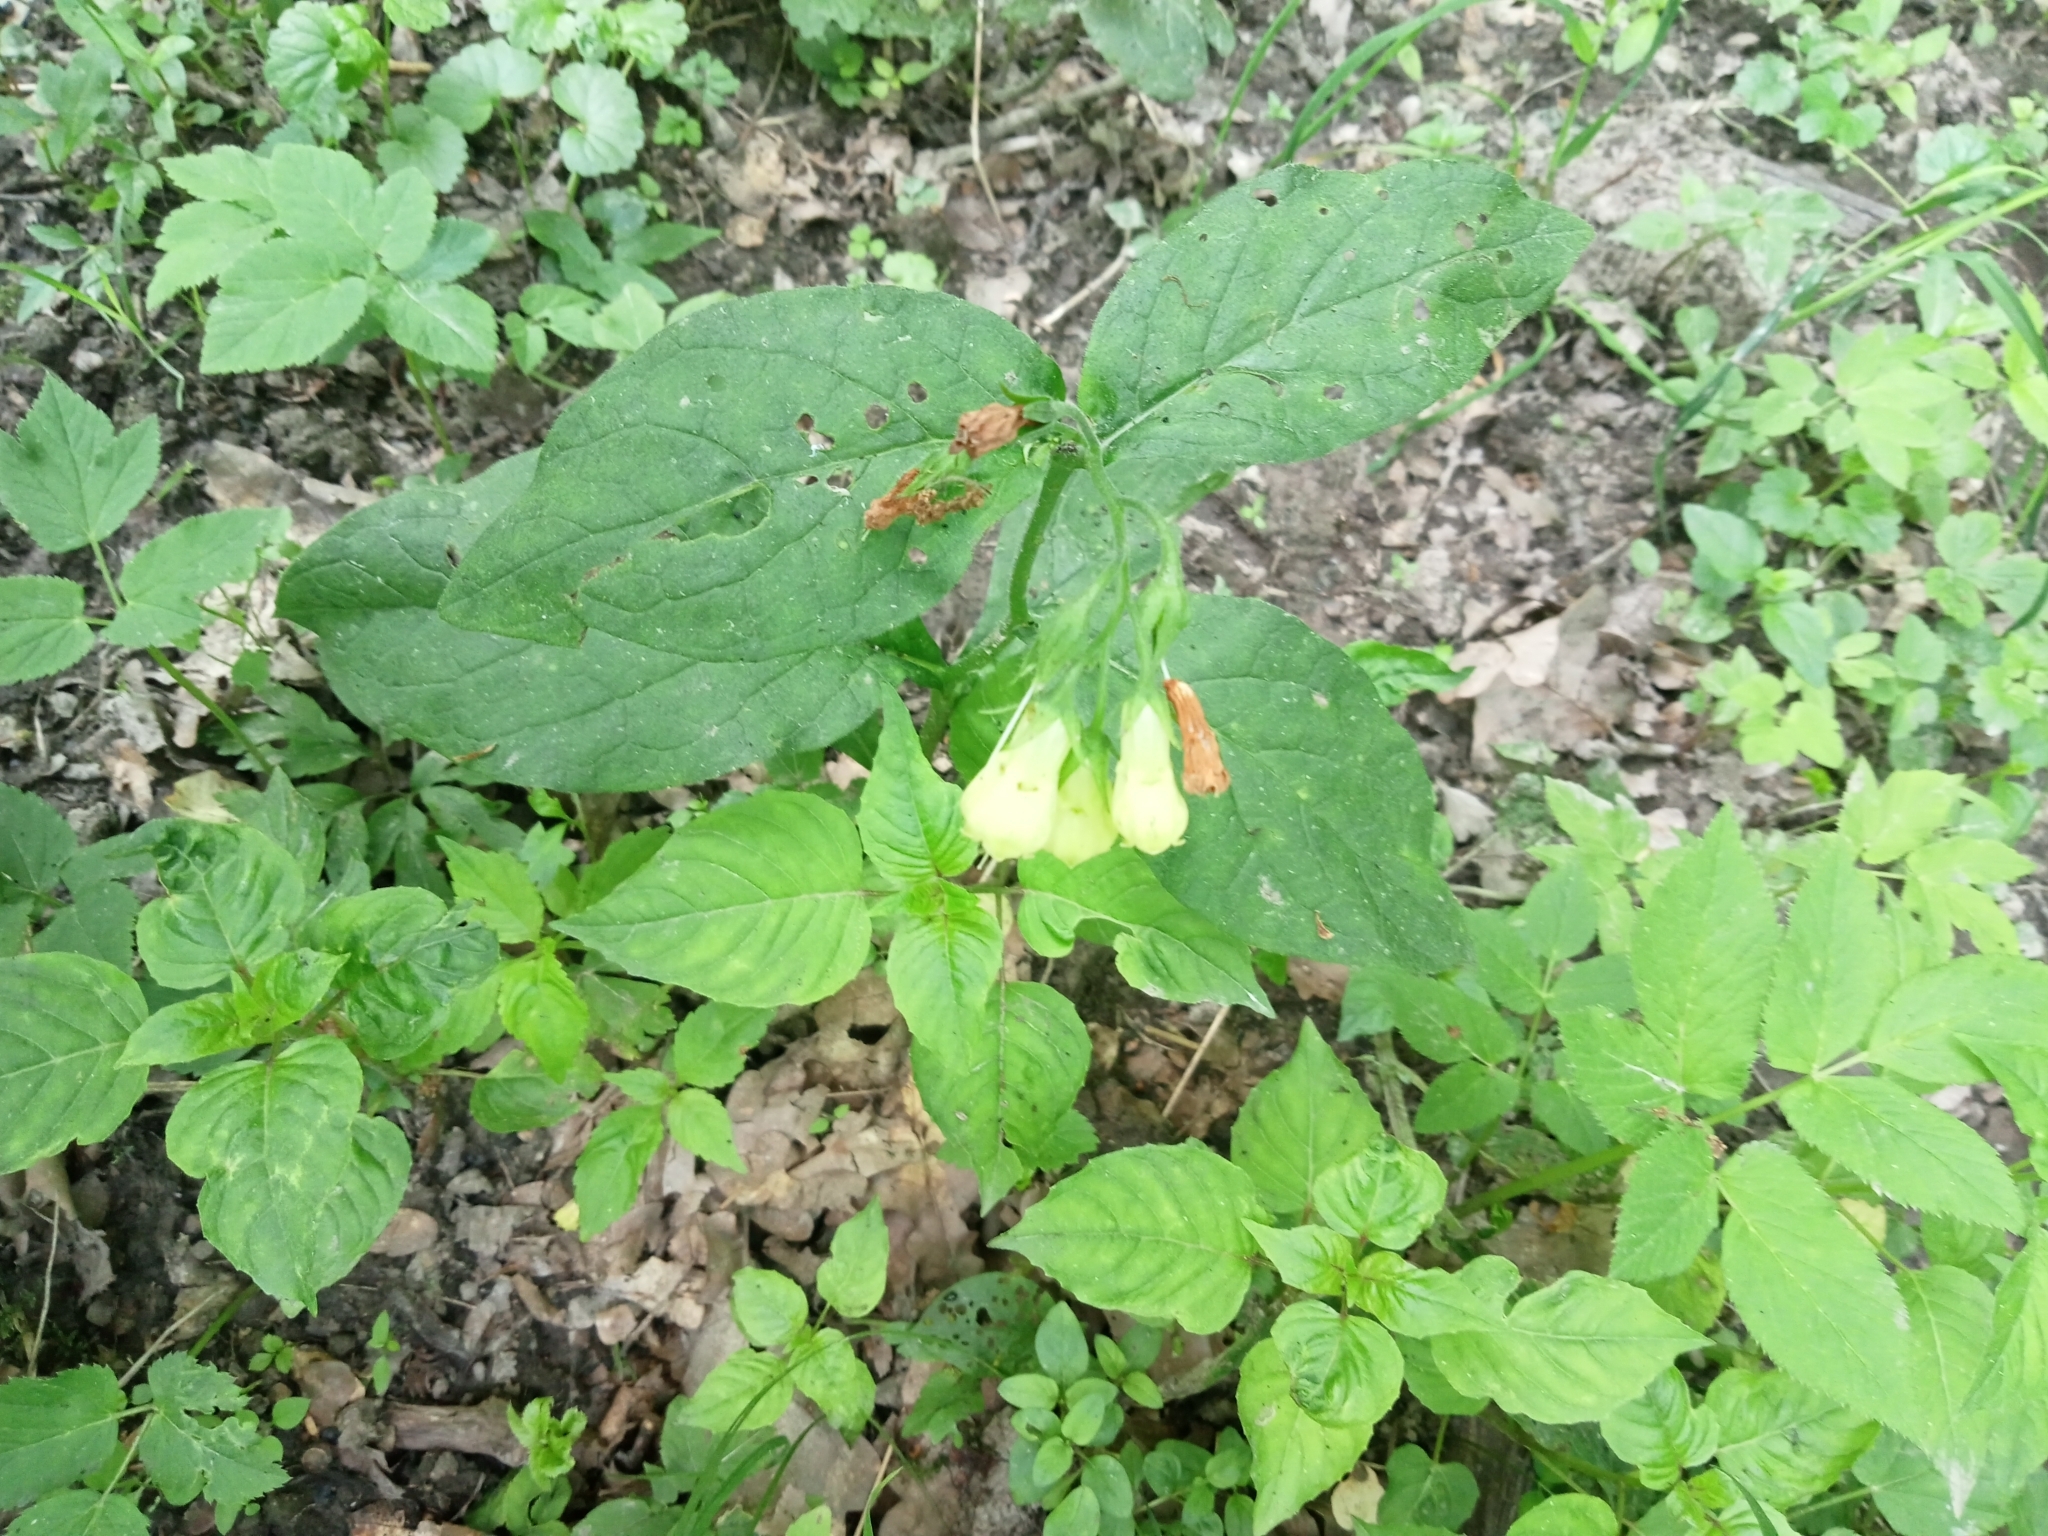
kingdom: Plantae
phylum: Tracheophyta
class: Magnoliopsida
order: Boraginales
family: Boraginaceae
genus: Symphytum
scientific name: Symphytum tuberosum
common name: Tuberous comfrey
